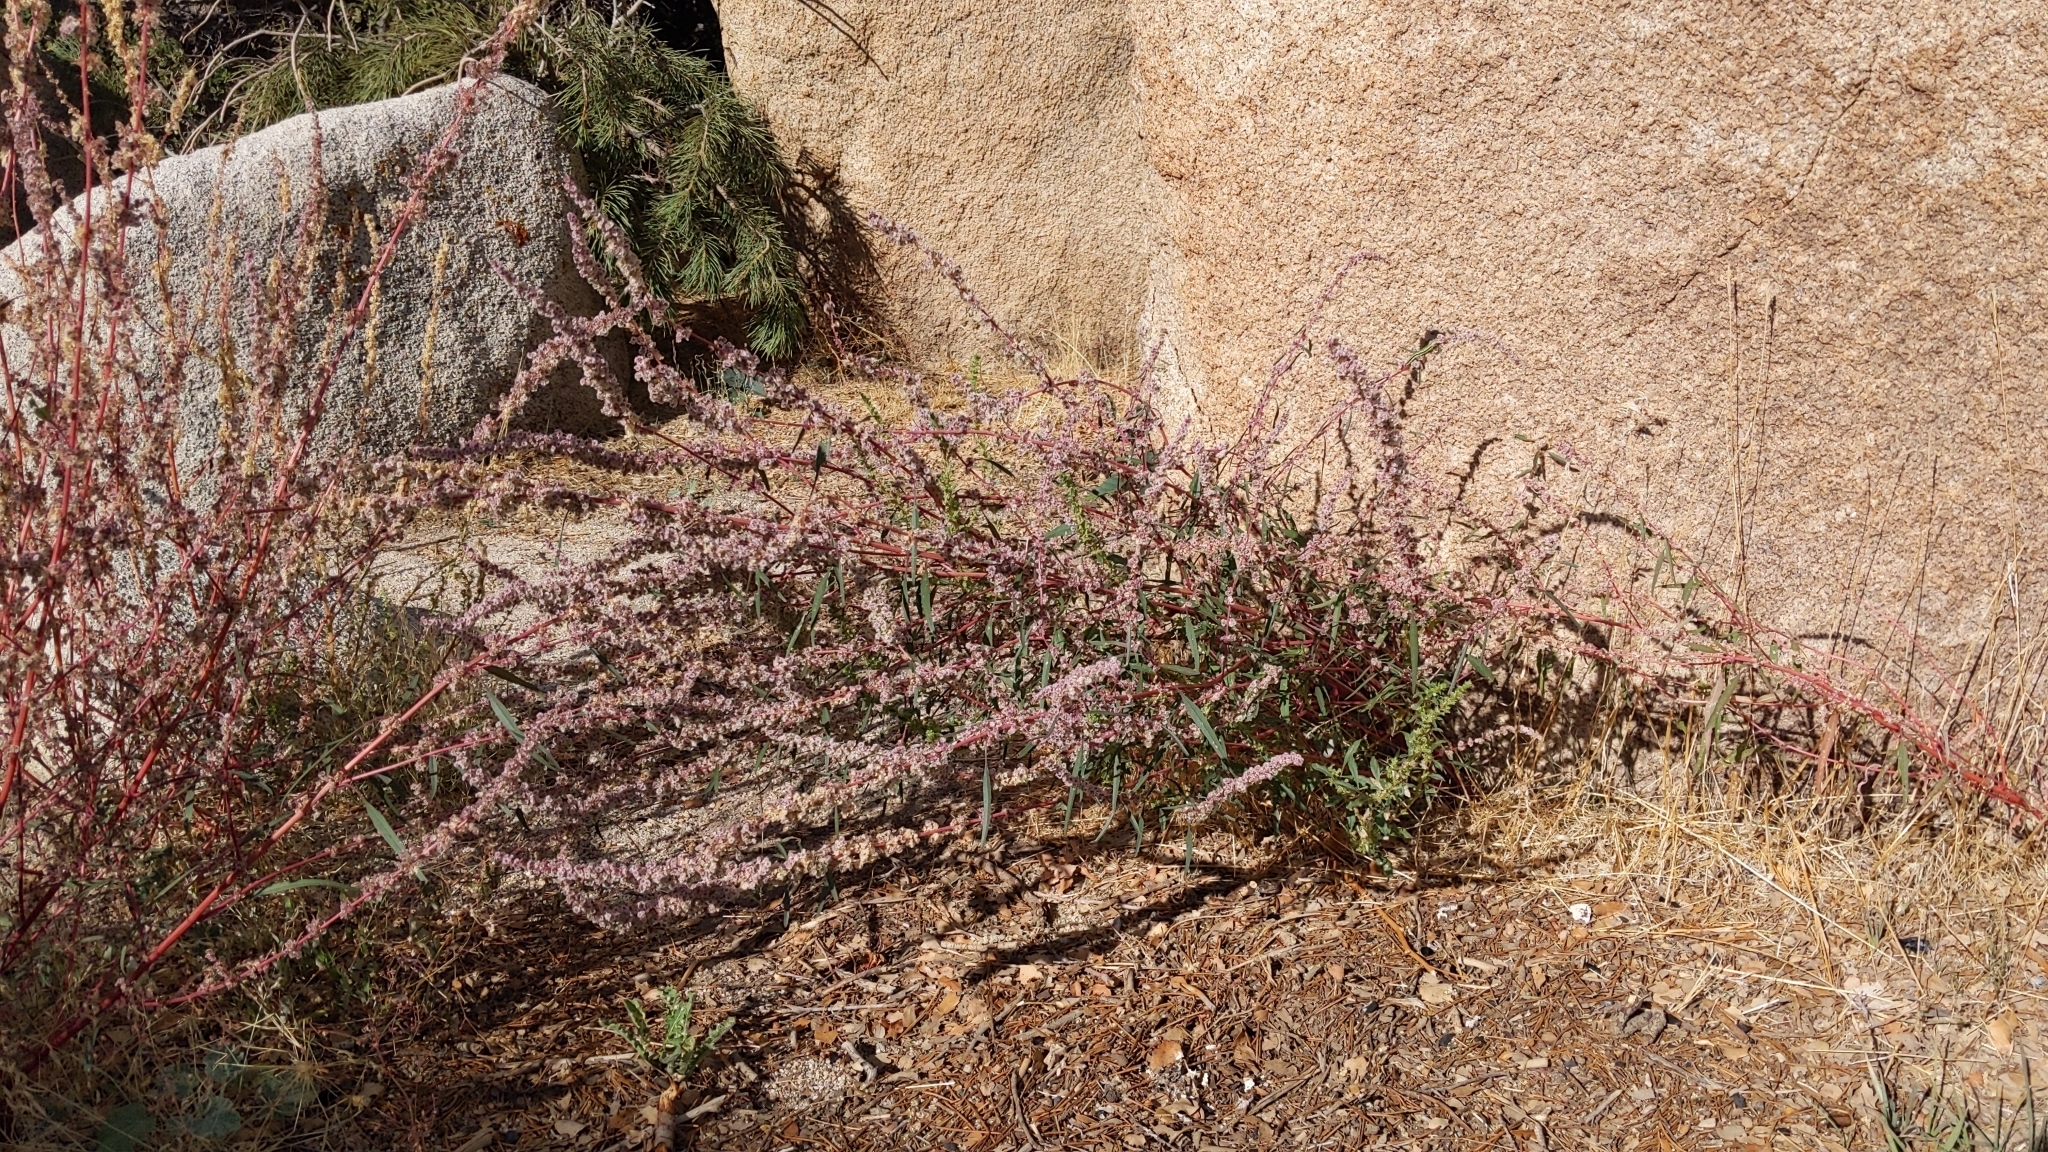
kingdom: Plantae
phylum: Tracheophyta
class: Magnoliopsida
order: Caryophyllales
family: Amaranthaceae
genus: Amaranthus
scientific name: Amaranthus fimbriatus
